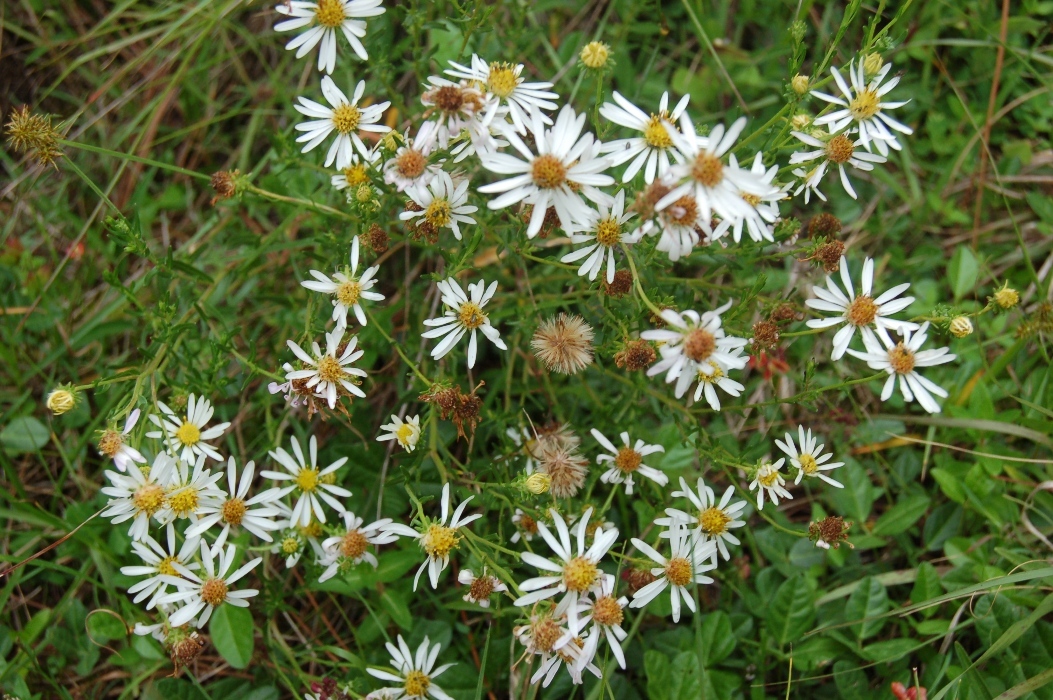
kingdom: Plantae
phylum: Tracheophyta
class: Magnoliopsida
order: Asterales
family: Asteraceae
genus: Symphyotrichum
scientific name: Symphyotrichum bullatum
